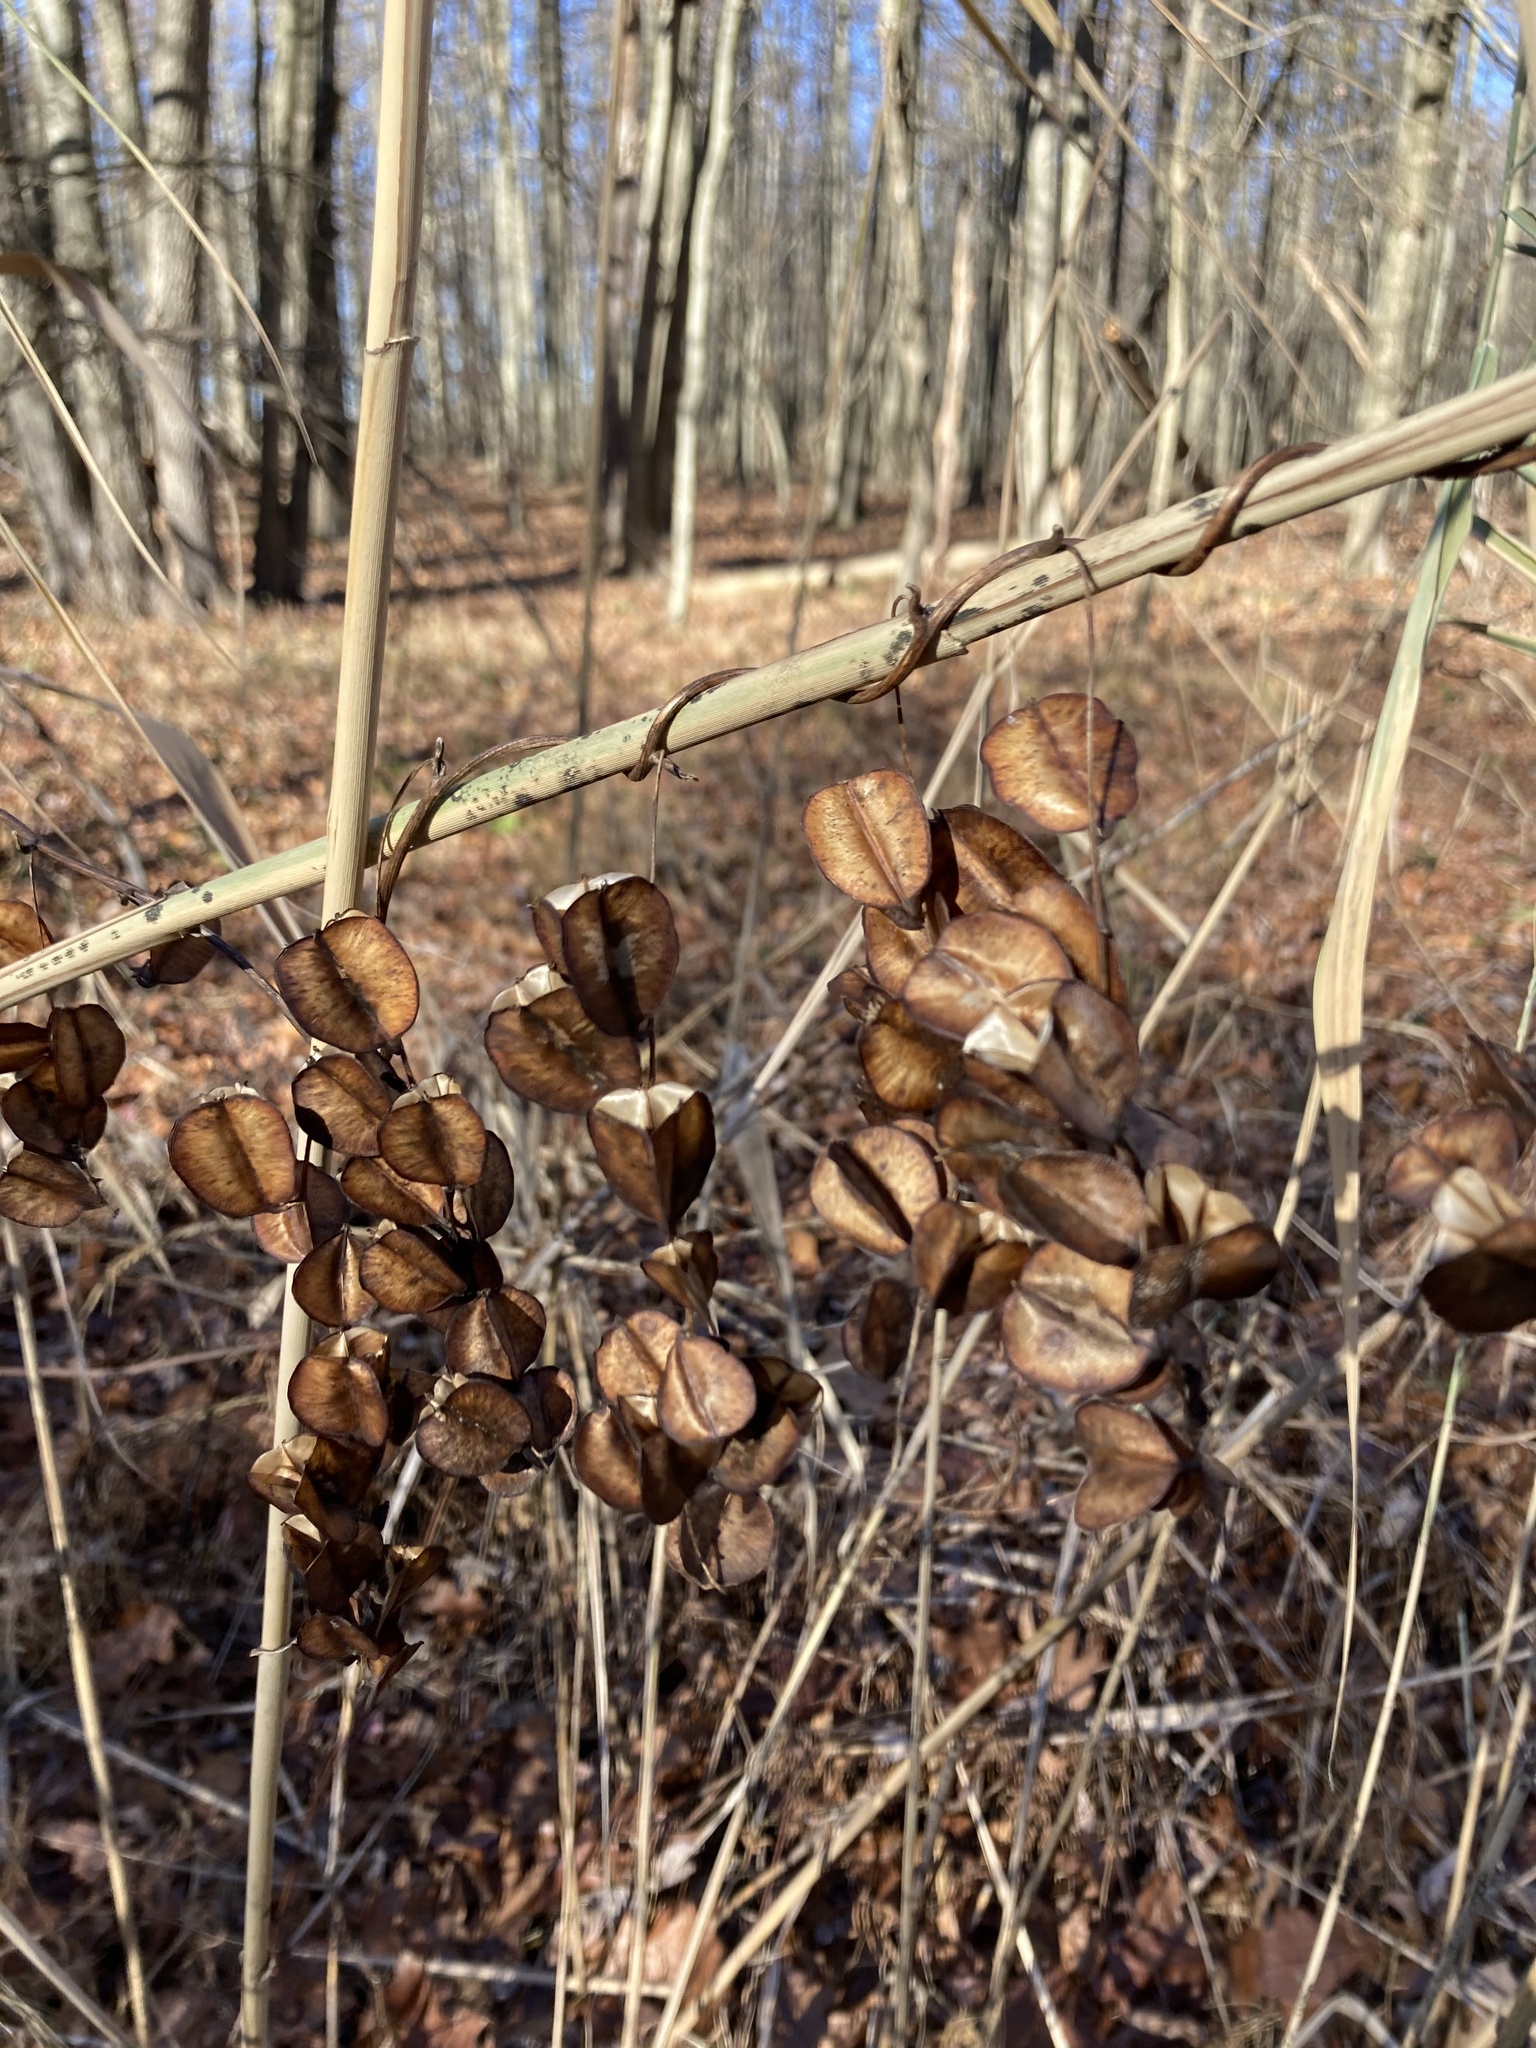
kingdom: Plantae
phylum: Tracheophyta
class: Liliopsida
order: Dioscoreales
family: Dioscoreaceae
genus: Dioscorea
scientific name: Dioscorea villosa
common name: Wild yam
